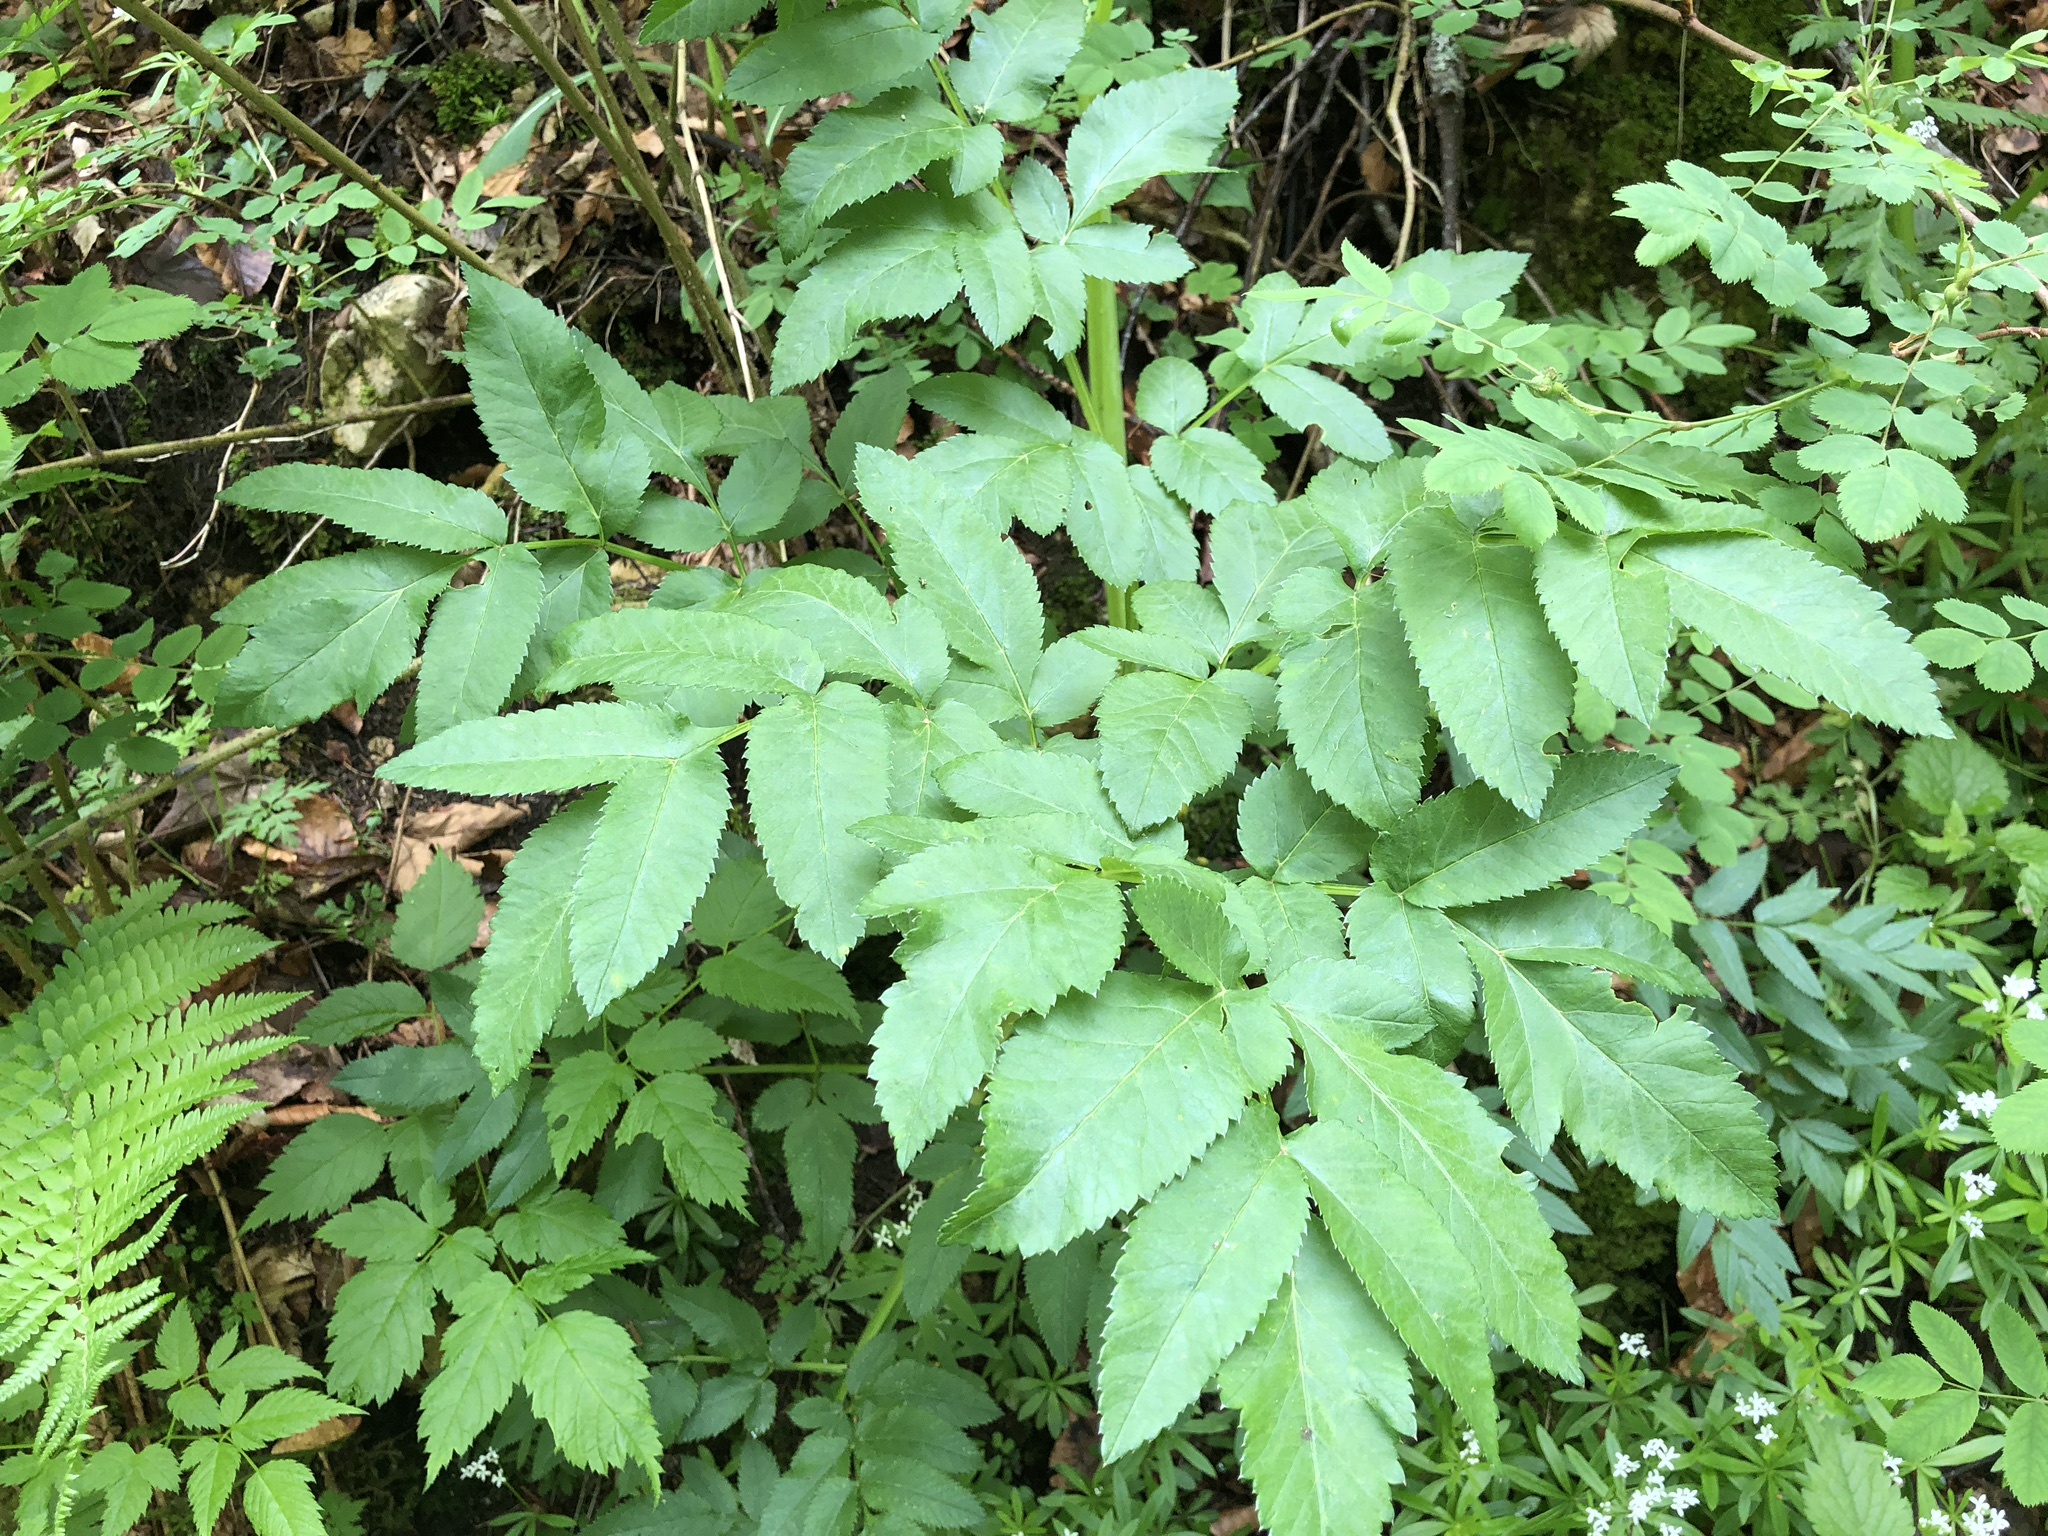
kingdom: Plantae
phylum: Tracheophyta
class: Magnoliopsida
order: Apiales
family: Apiaceae
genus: Angelica
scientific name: Angelica sylvestris
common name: Wild angelica
